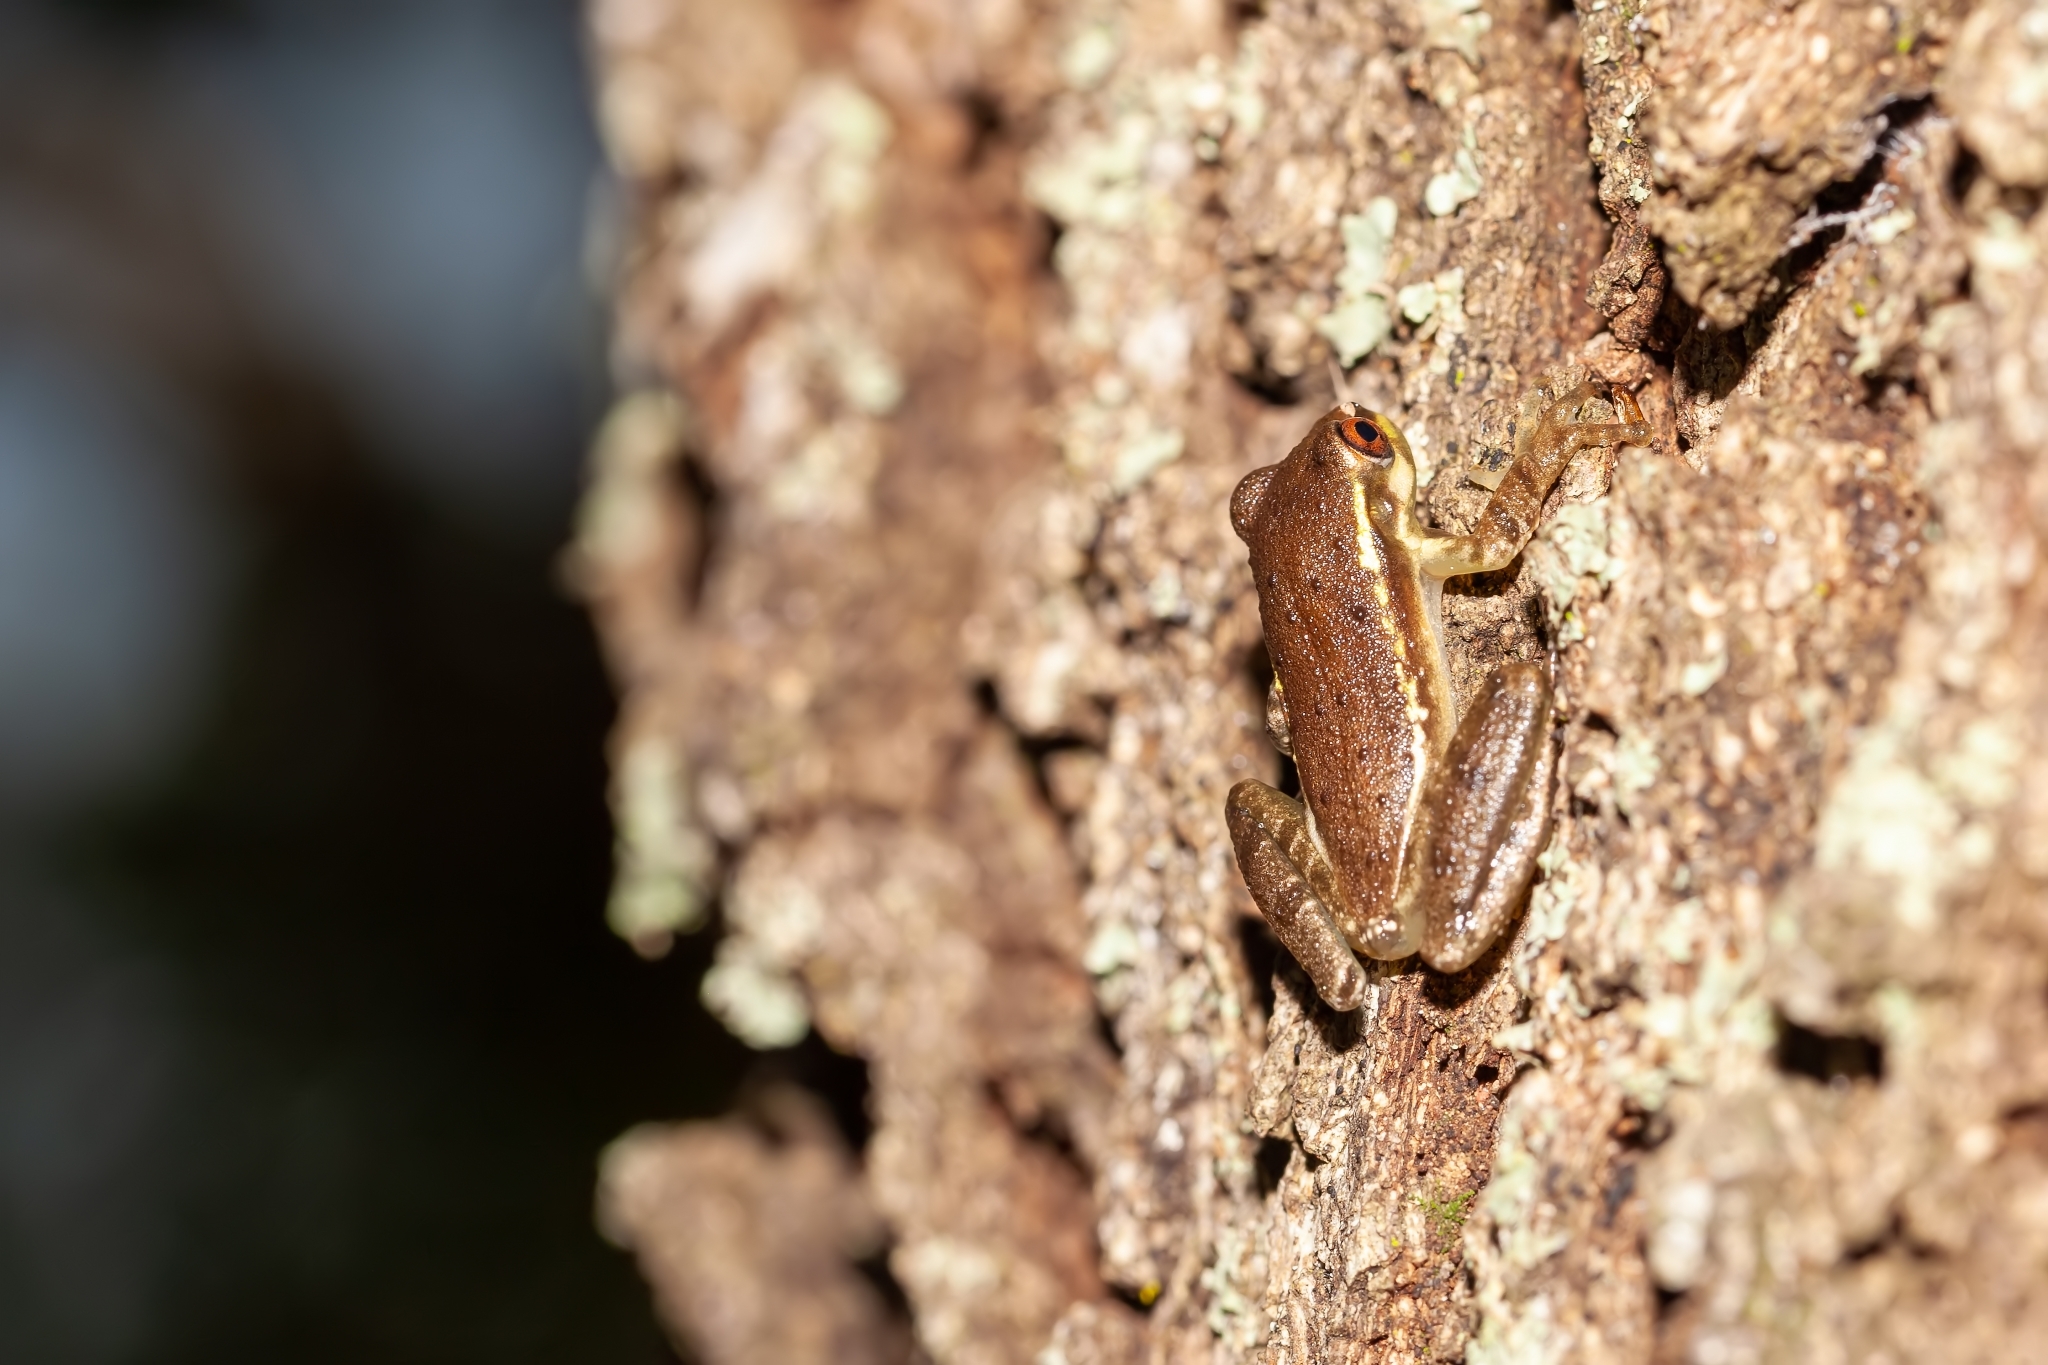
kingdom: Animalia
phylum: Chordata
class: Amphibia
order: Anura
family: Hylidae
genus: Osteopilus
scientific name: Osteopilus septentrionalis
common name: Cuban treefrog
